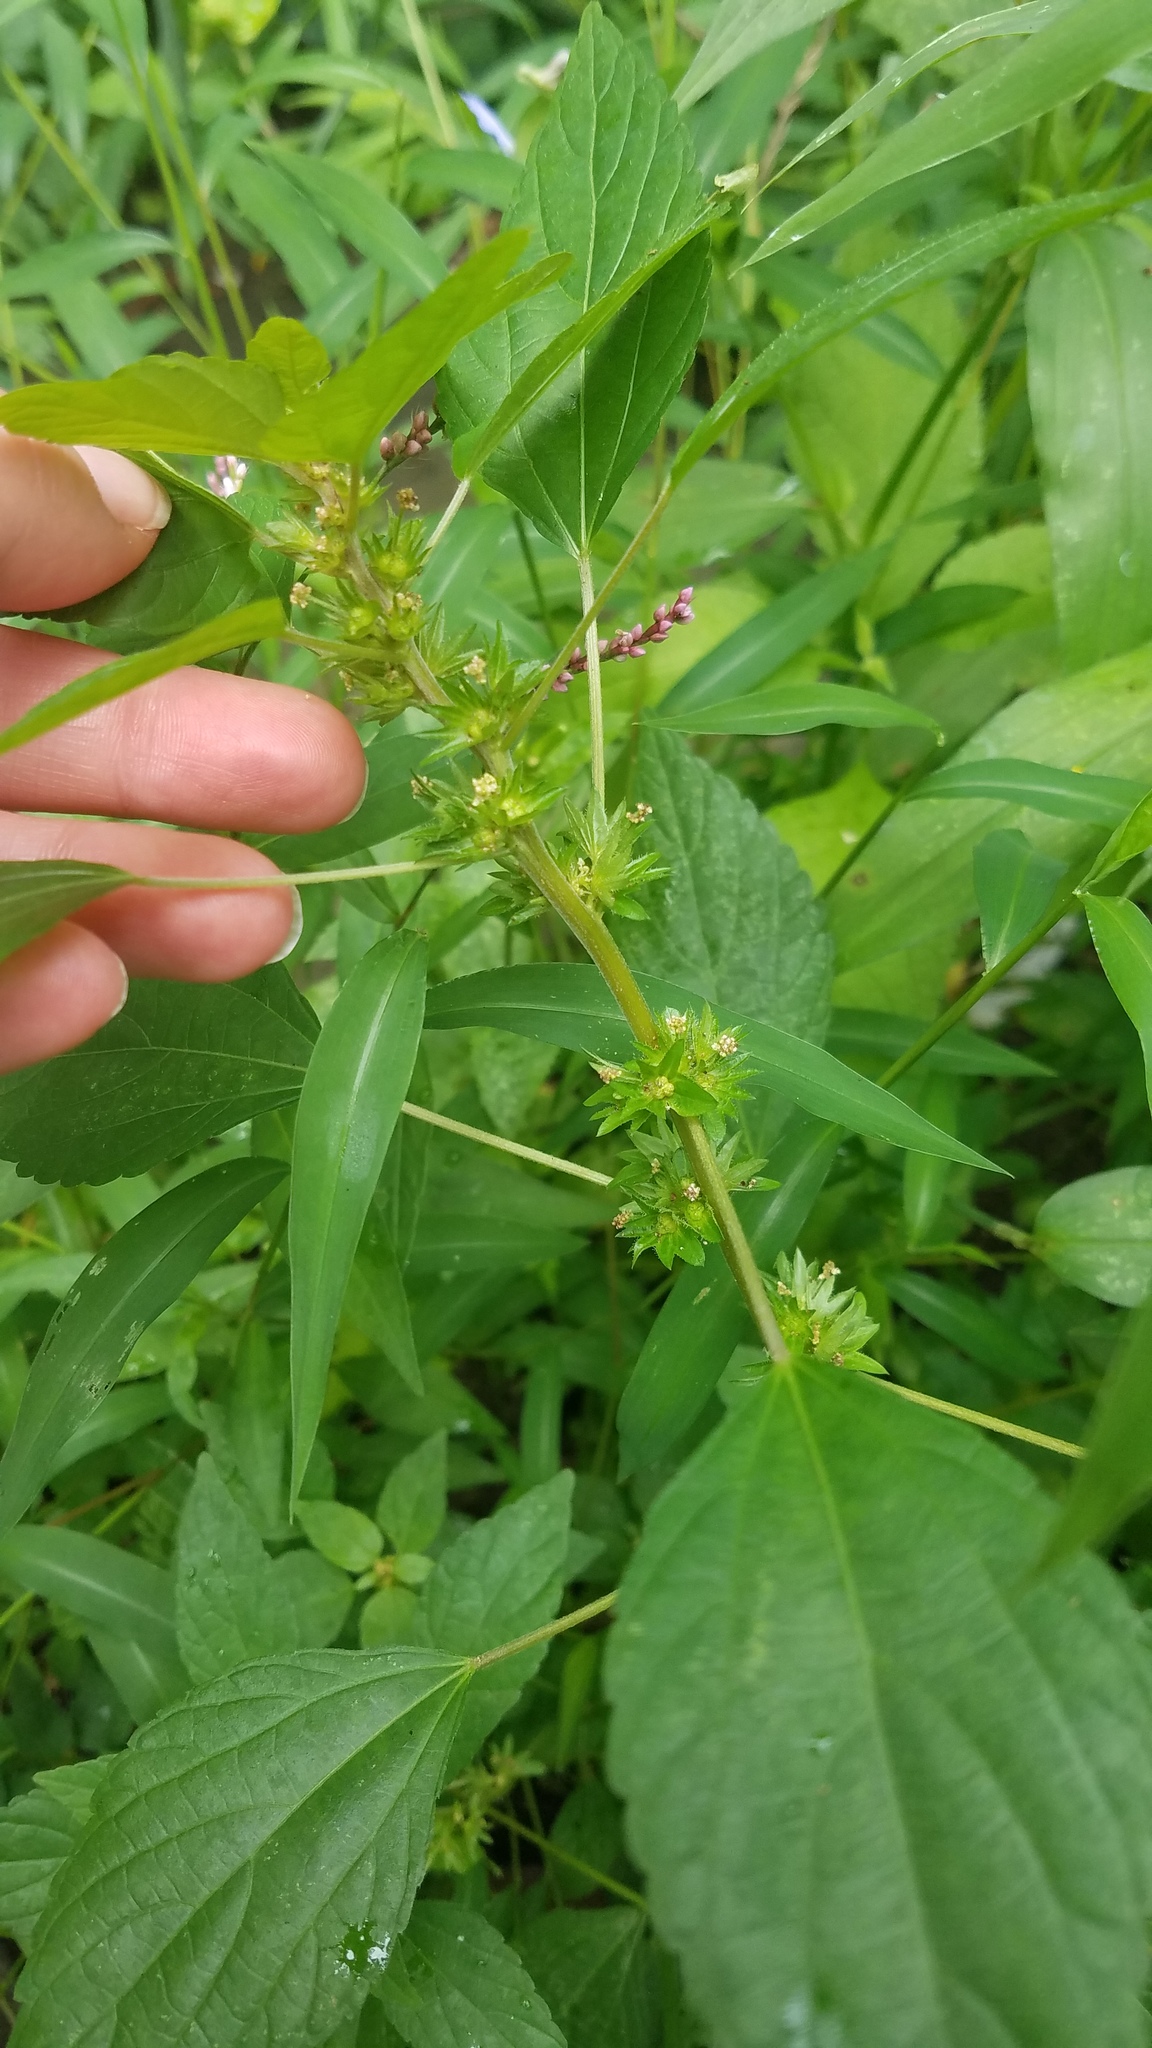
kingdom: Plantae
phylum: Tracheophyta
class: Magnoliopsida
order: Malpighiales
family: Euphorbiaceae
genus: Acalypha
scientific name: Acalypha rhomboidea
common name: Rhombic copperleaf
